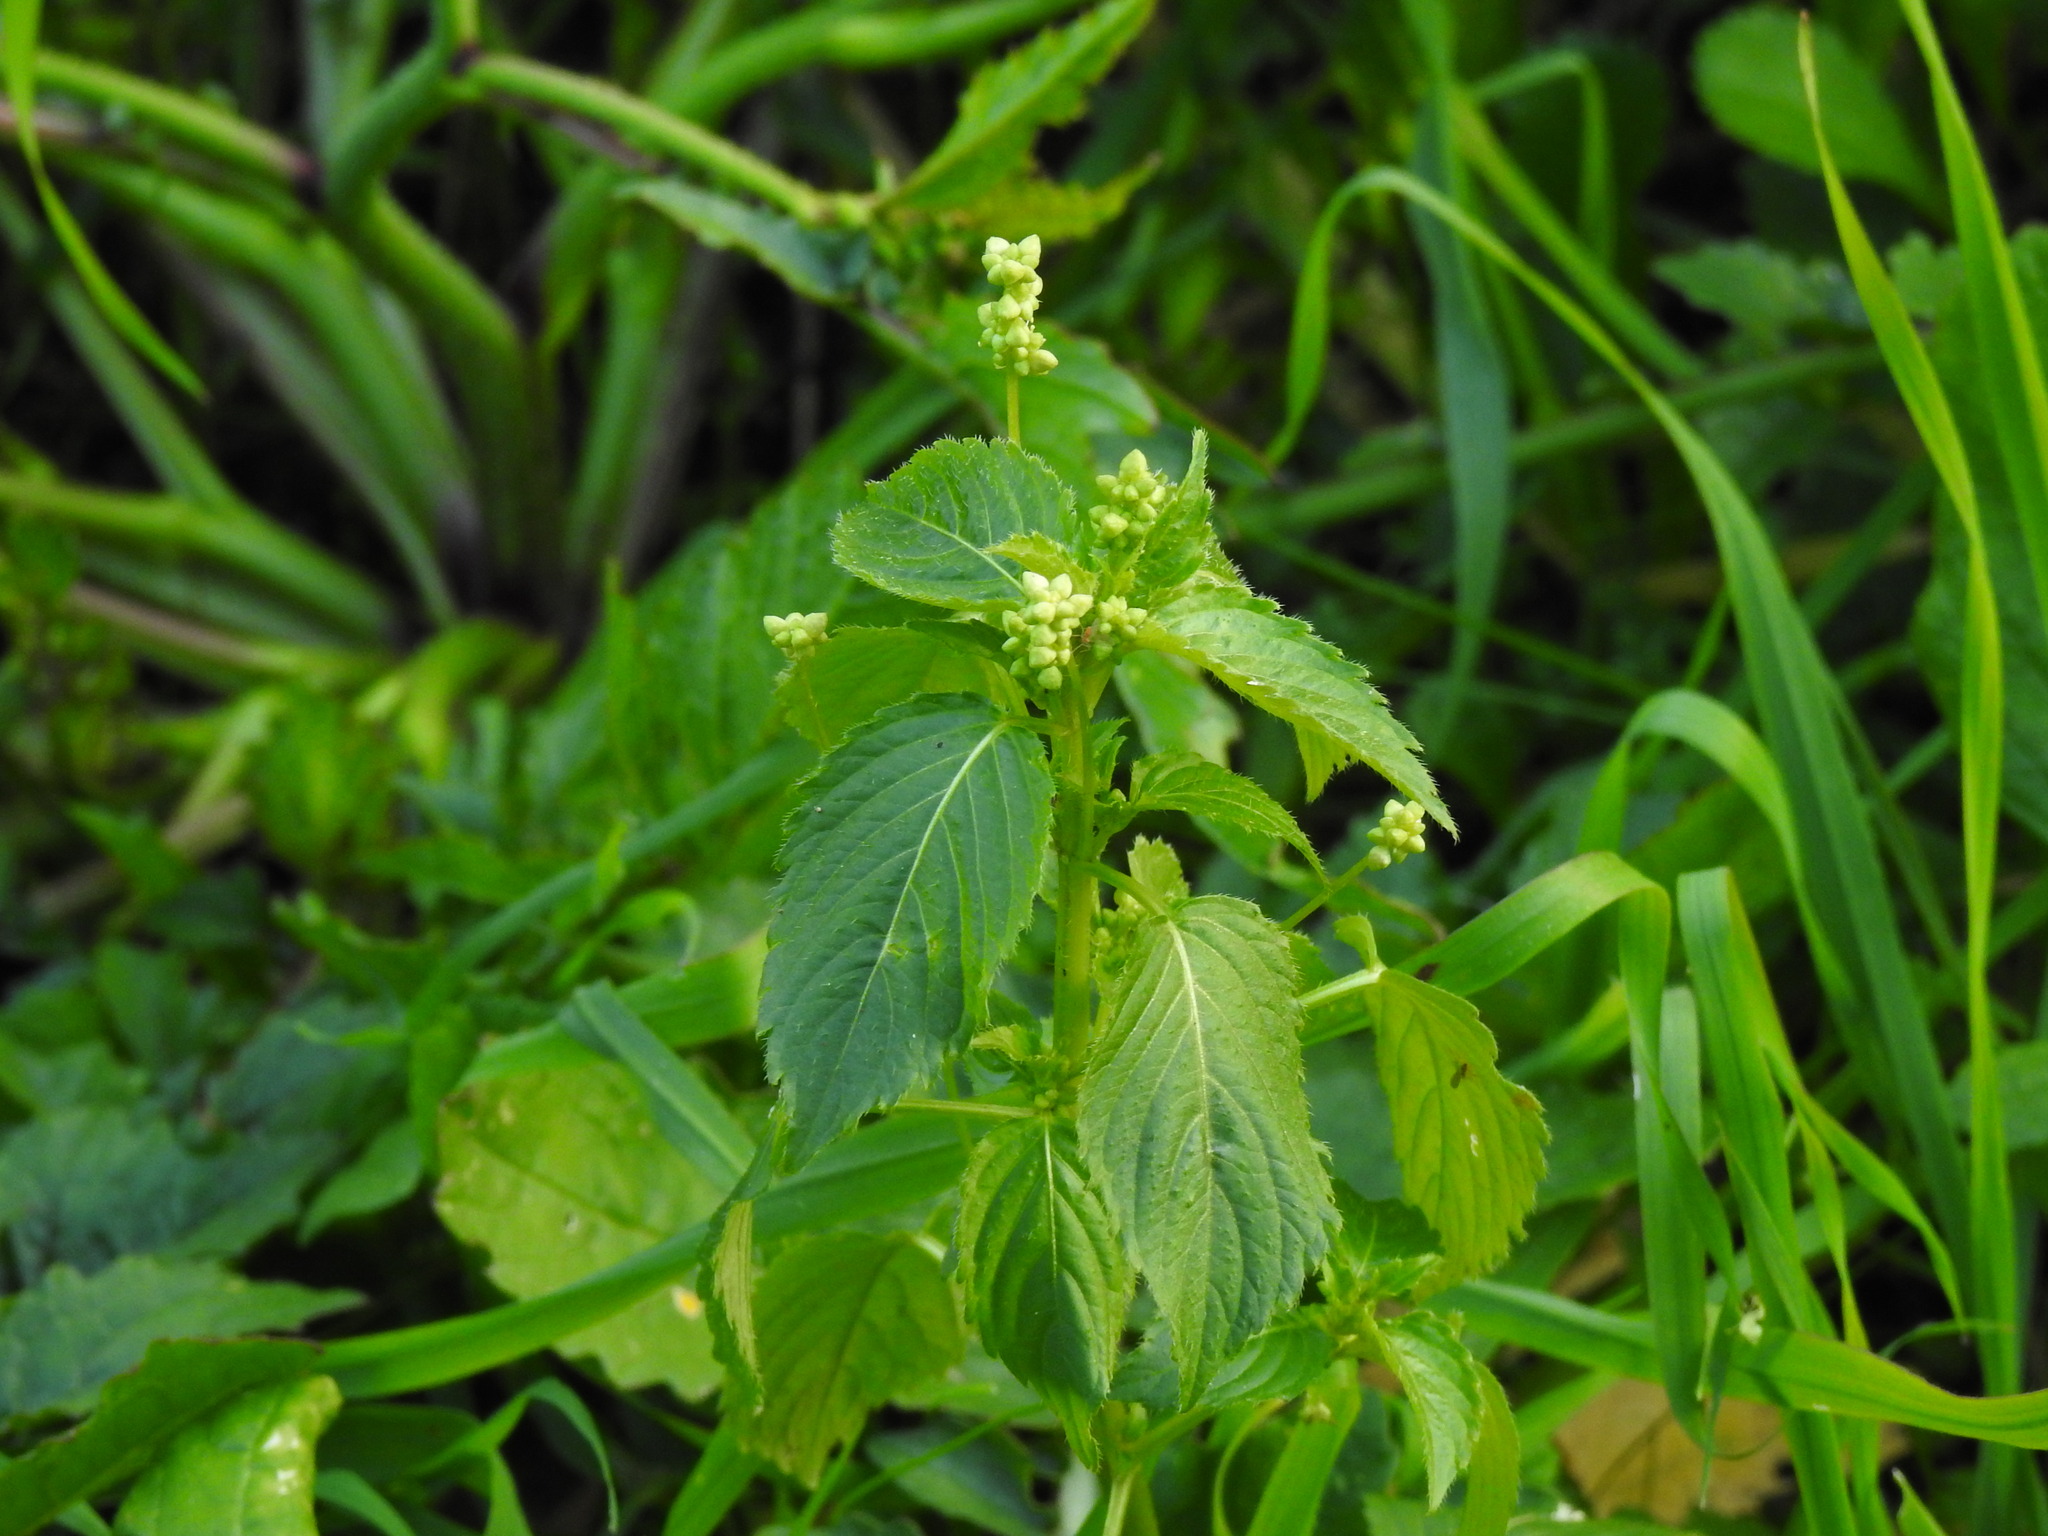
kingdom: Plantae
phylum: Tracheophyta
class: Magnoliopsida
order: Malpighiales
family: Euphorbiaceae
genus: Mercurialis
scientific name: Mercurialis annua
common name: Annual mercury
